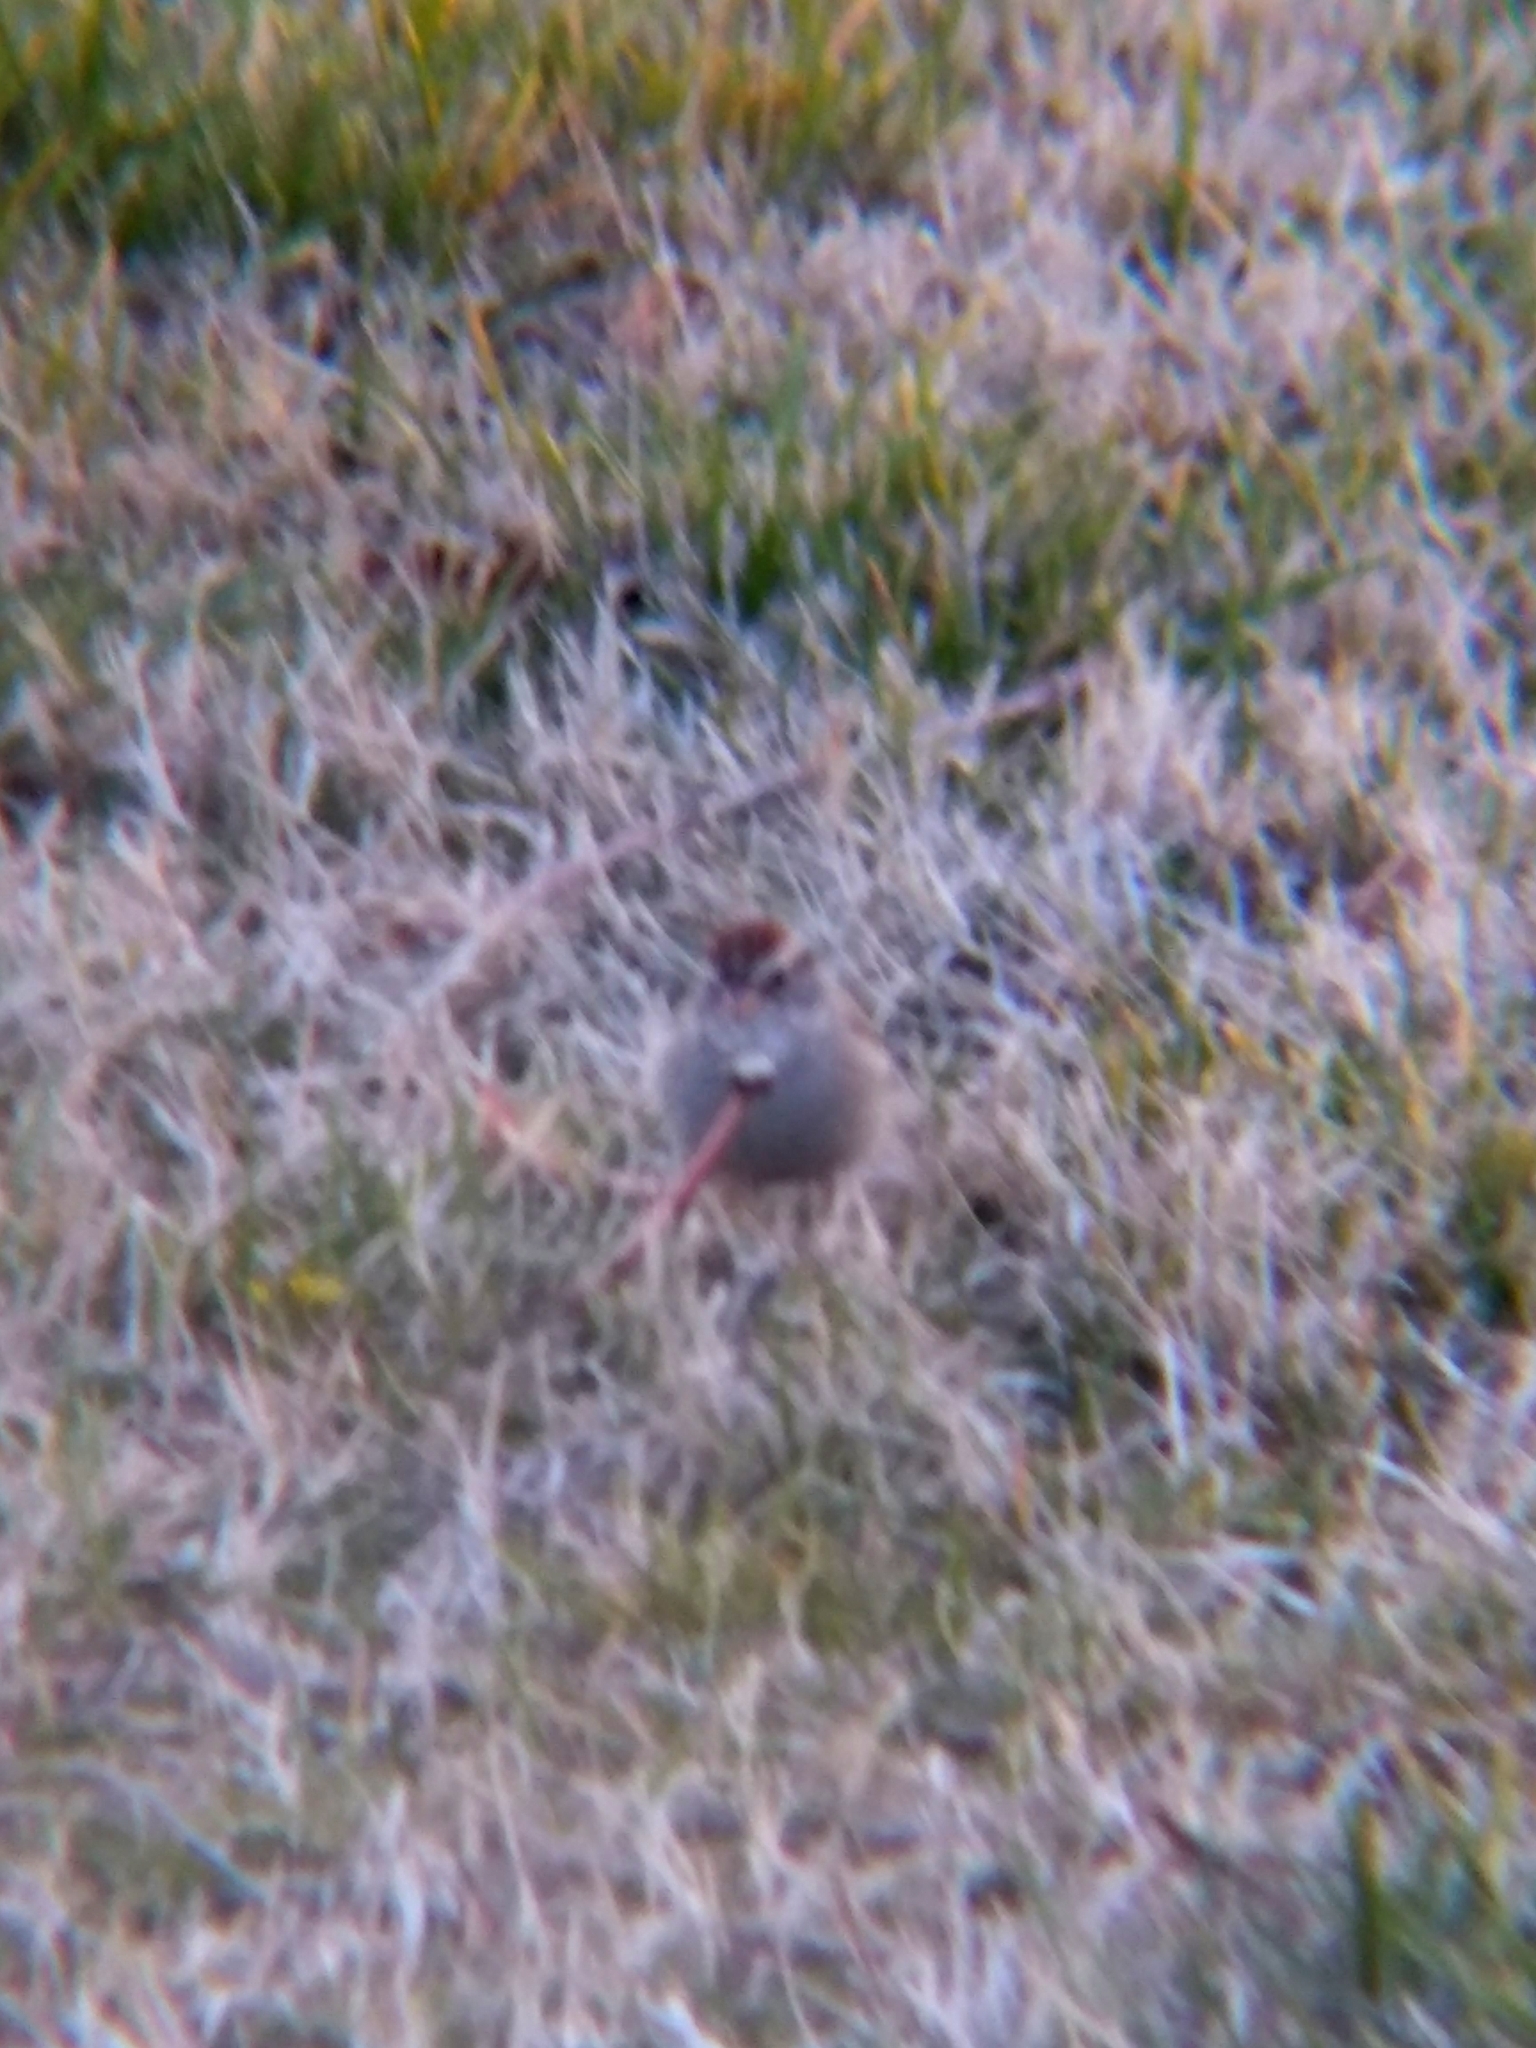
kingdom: Animalia
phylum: Chordata
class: Aves
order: Passeriformes
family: Passerellidae
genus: Spizella
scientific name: Spizella passerina
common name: Chipping sparrow
